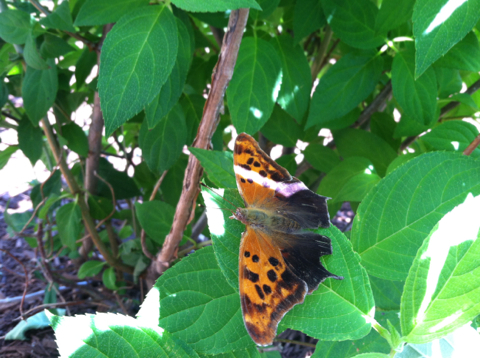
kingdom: Animalia
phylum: Arthropoda
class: Insecta
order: Lepidoptera
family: Nymphalidae
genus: Polygonia
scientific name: Polygonia interrogationis
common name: Question mark
